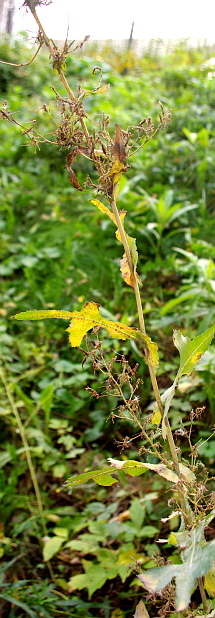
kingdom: Plantae
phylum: Tracheophyta
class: Magnoliopsida
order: Asterales
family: Asteraceae
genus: Lactuca
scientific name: Lactuca serriola
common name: Prickly lettuce
